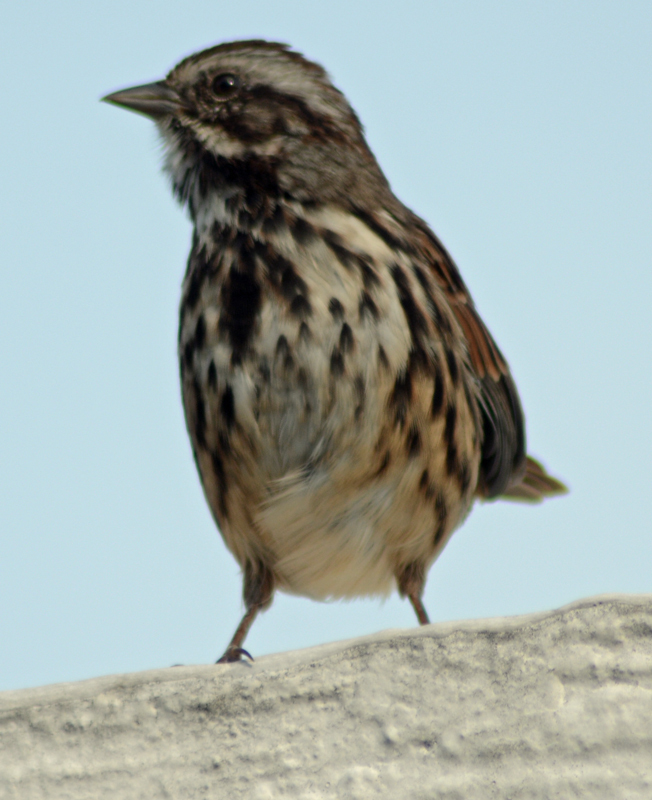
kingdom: Animalia
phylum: Chordata
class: Aves
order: Passeriformes
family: Passerellidae
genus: Melospiza
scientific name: Melospiza melodia
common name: Song sparrow
